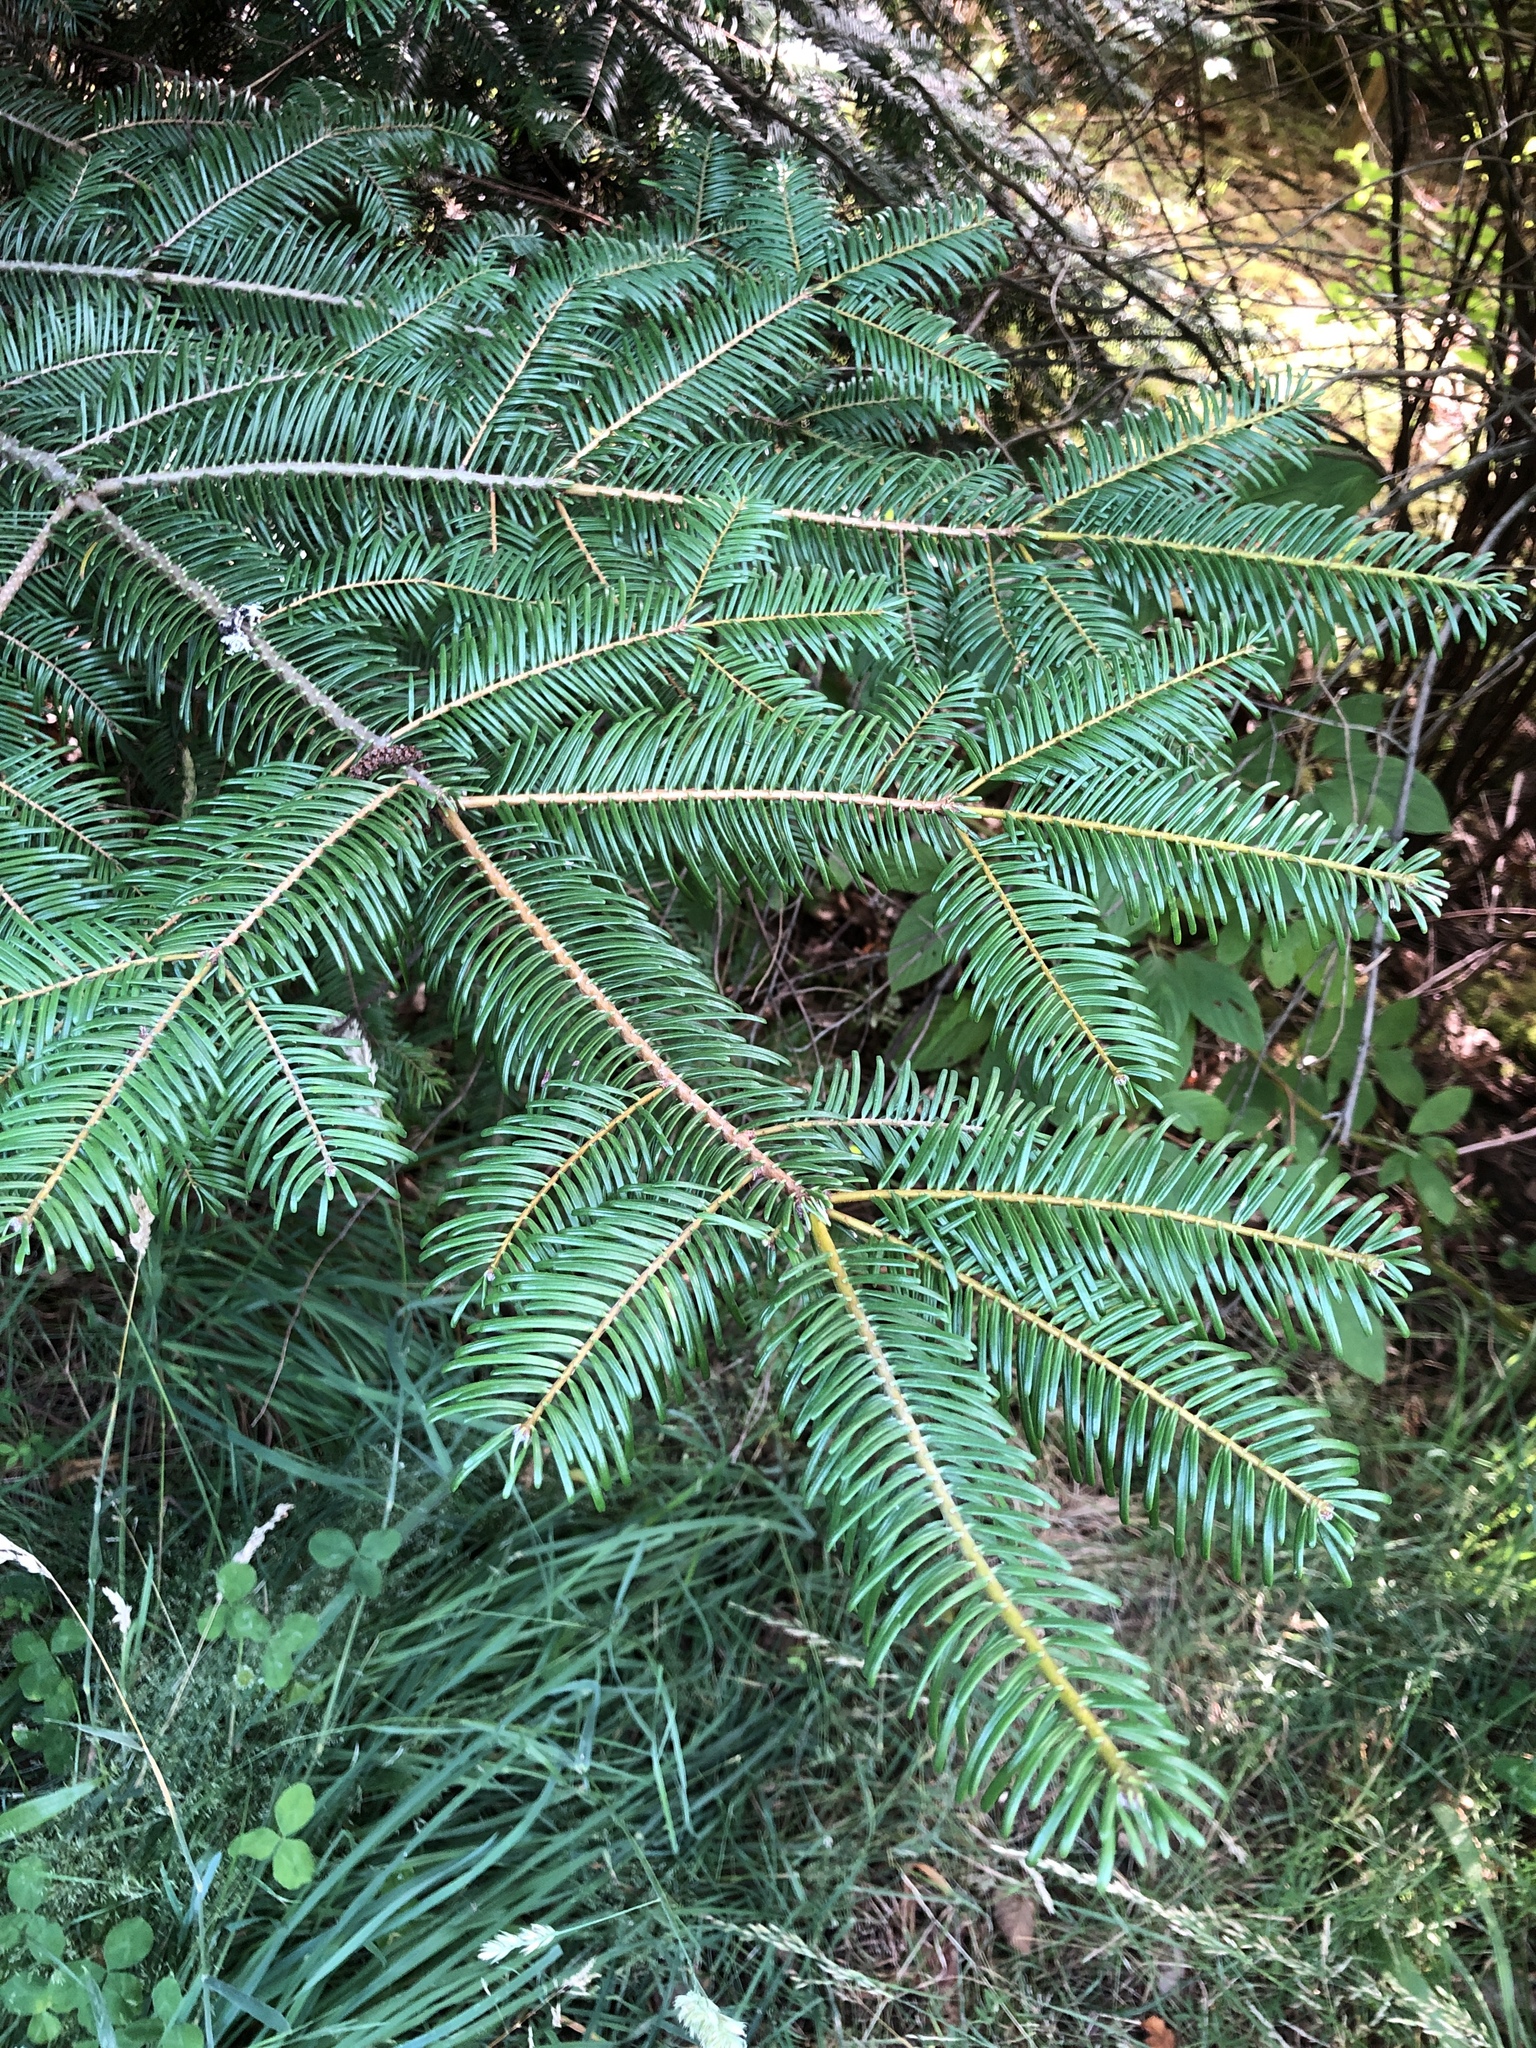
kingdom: Plantae
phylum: Tracheophyta
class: Pinopsida
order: Pinales
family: Pinaceae
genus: Abies
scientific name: Abies grandis
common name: Giant fir
